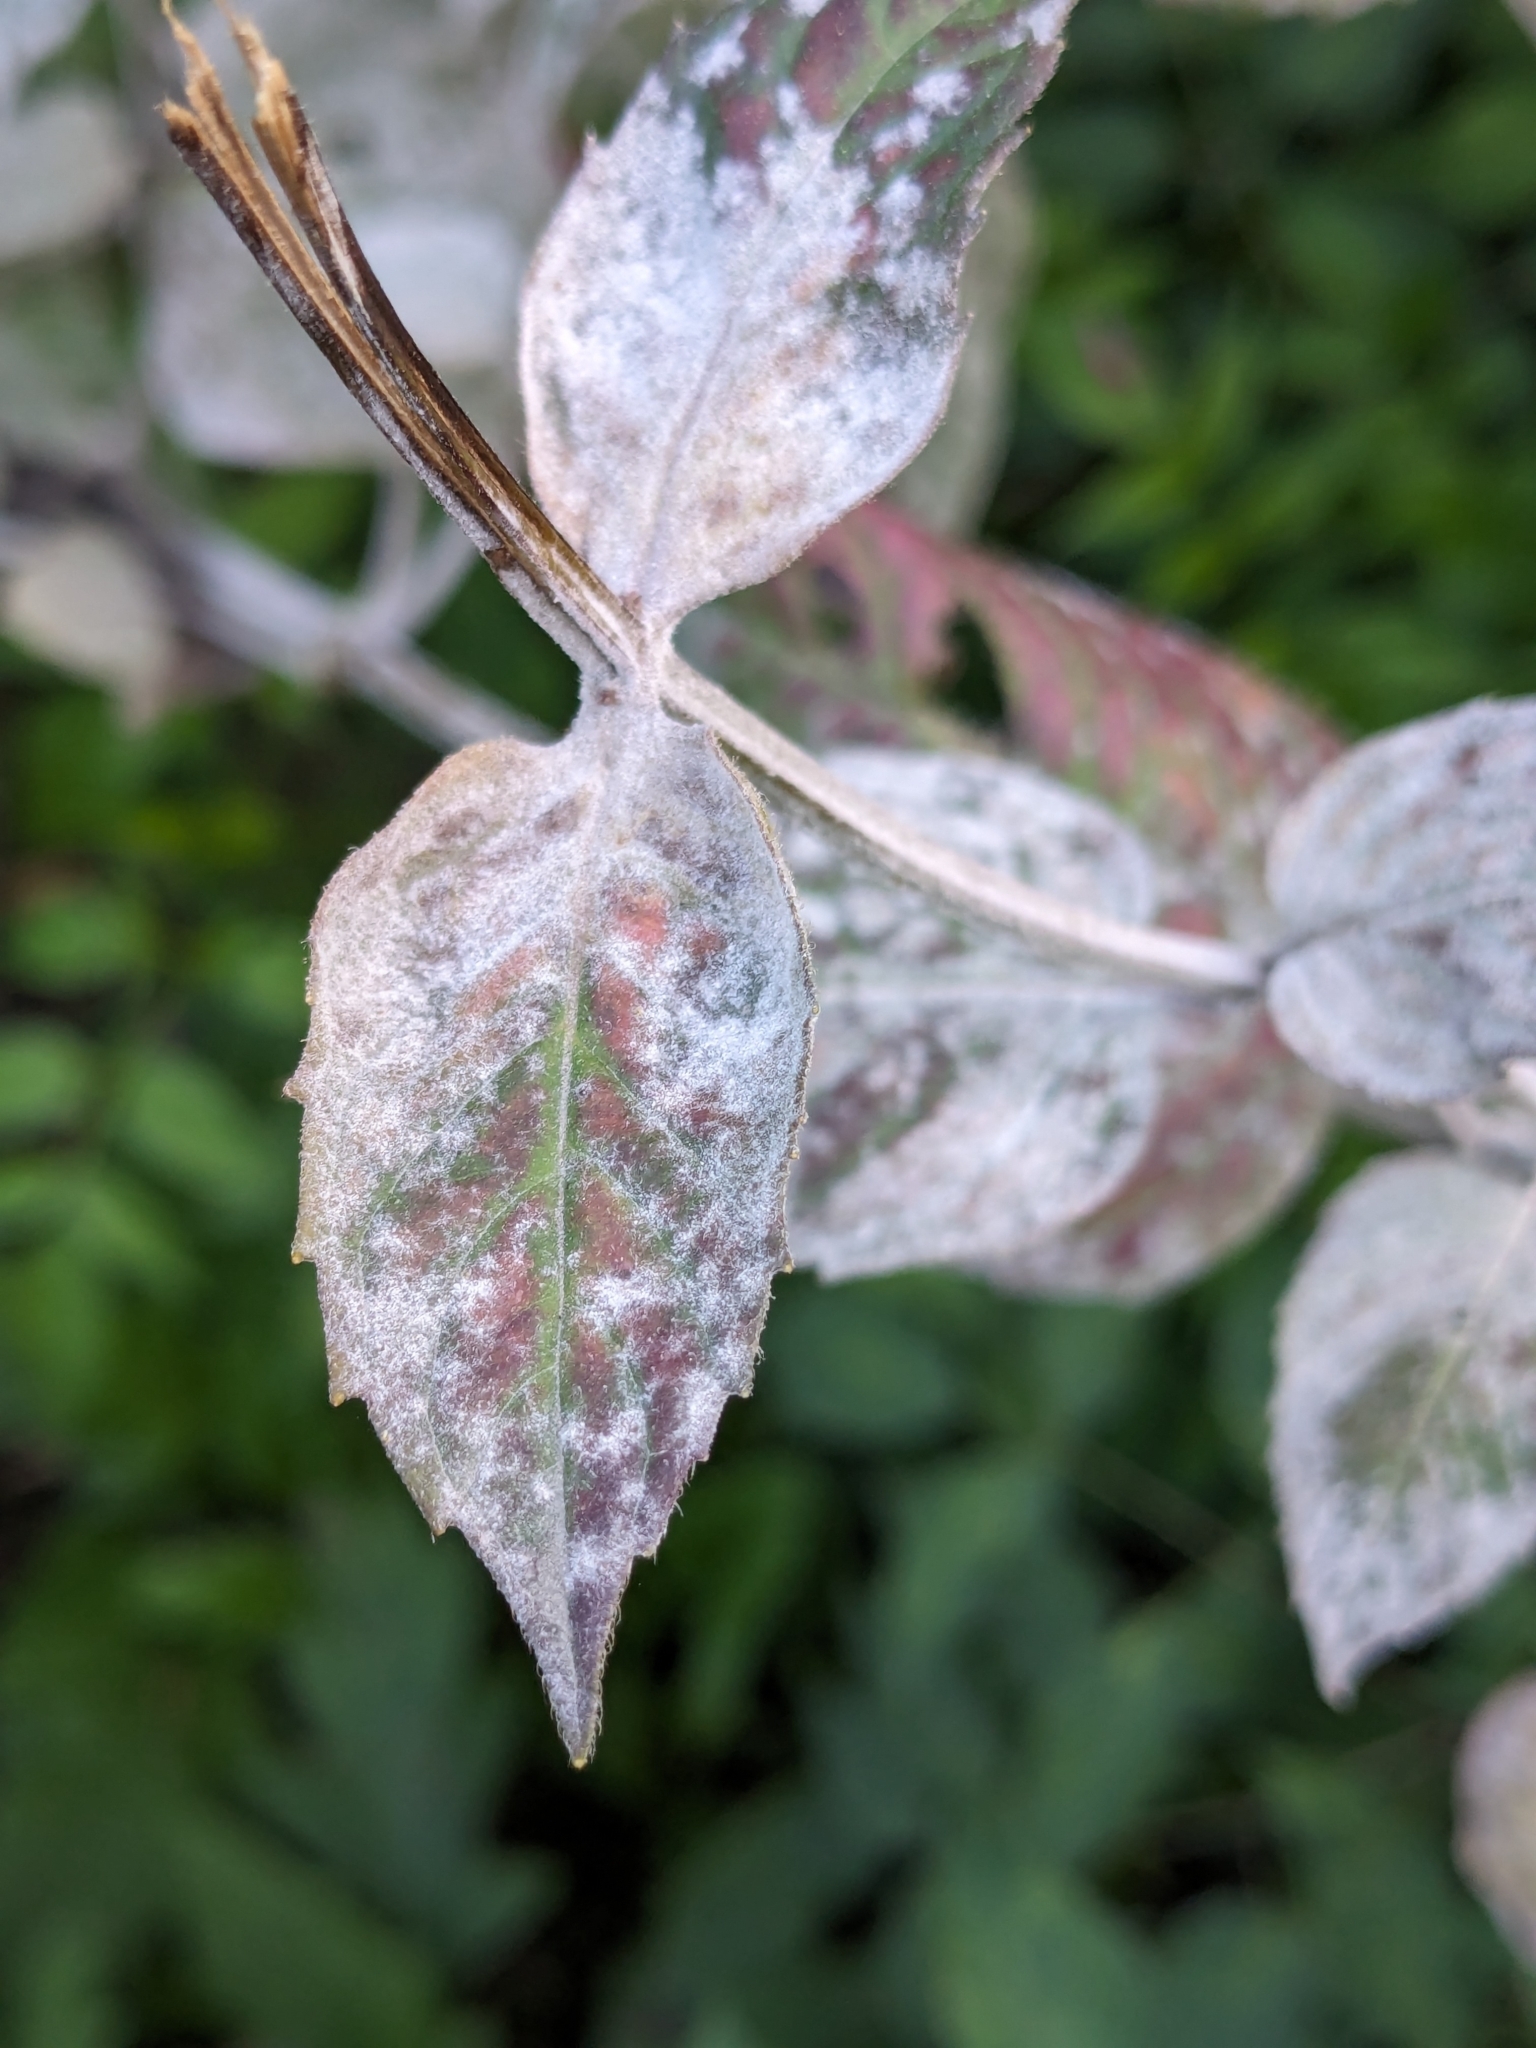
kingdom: Fungi
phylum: Ascomycota
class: Leotiomycetes
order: Helotiales
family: Erysiphaceae
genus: Golovinomyces
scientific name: Golovinomyces monardae
